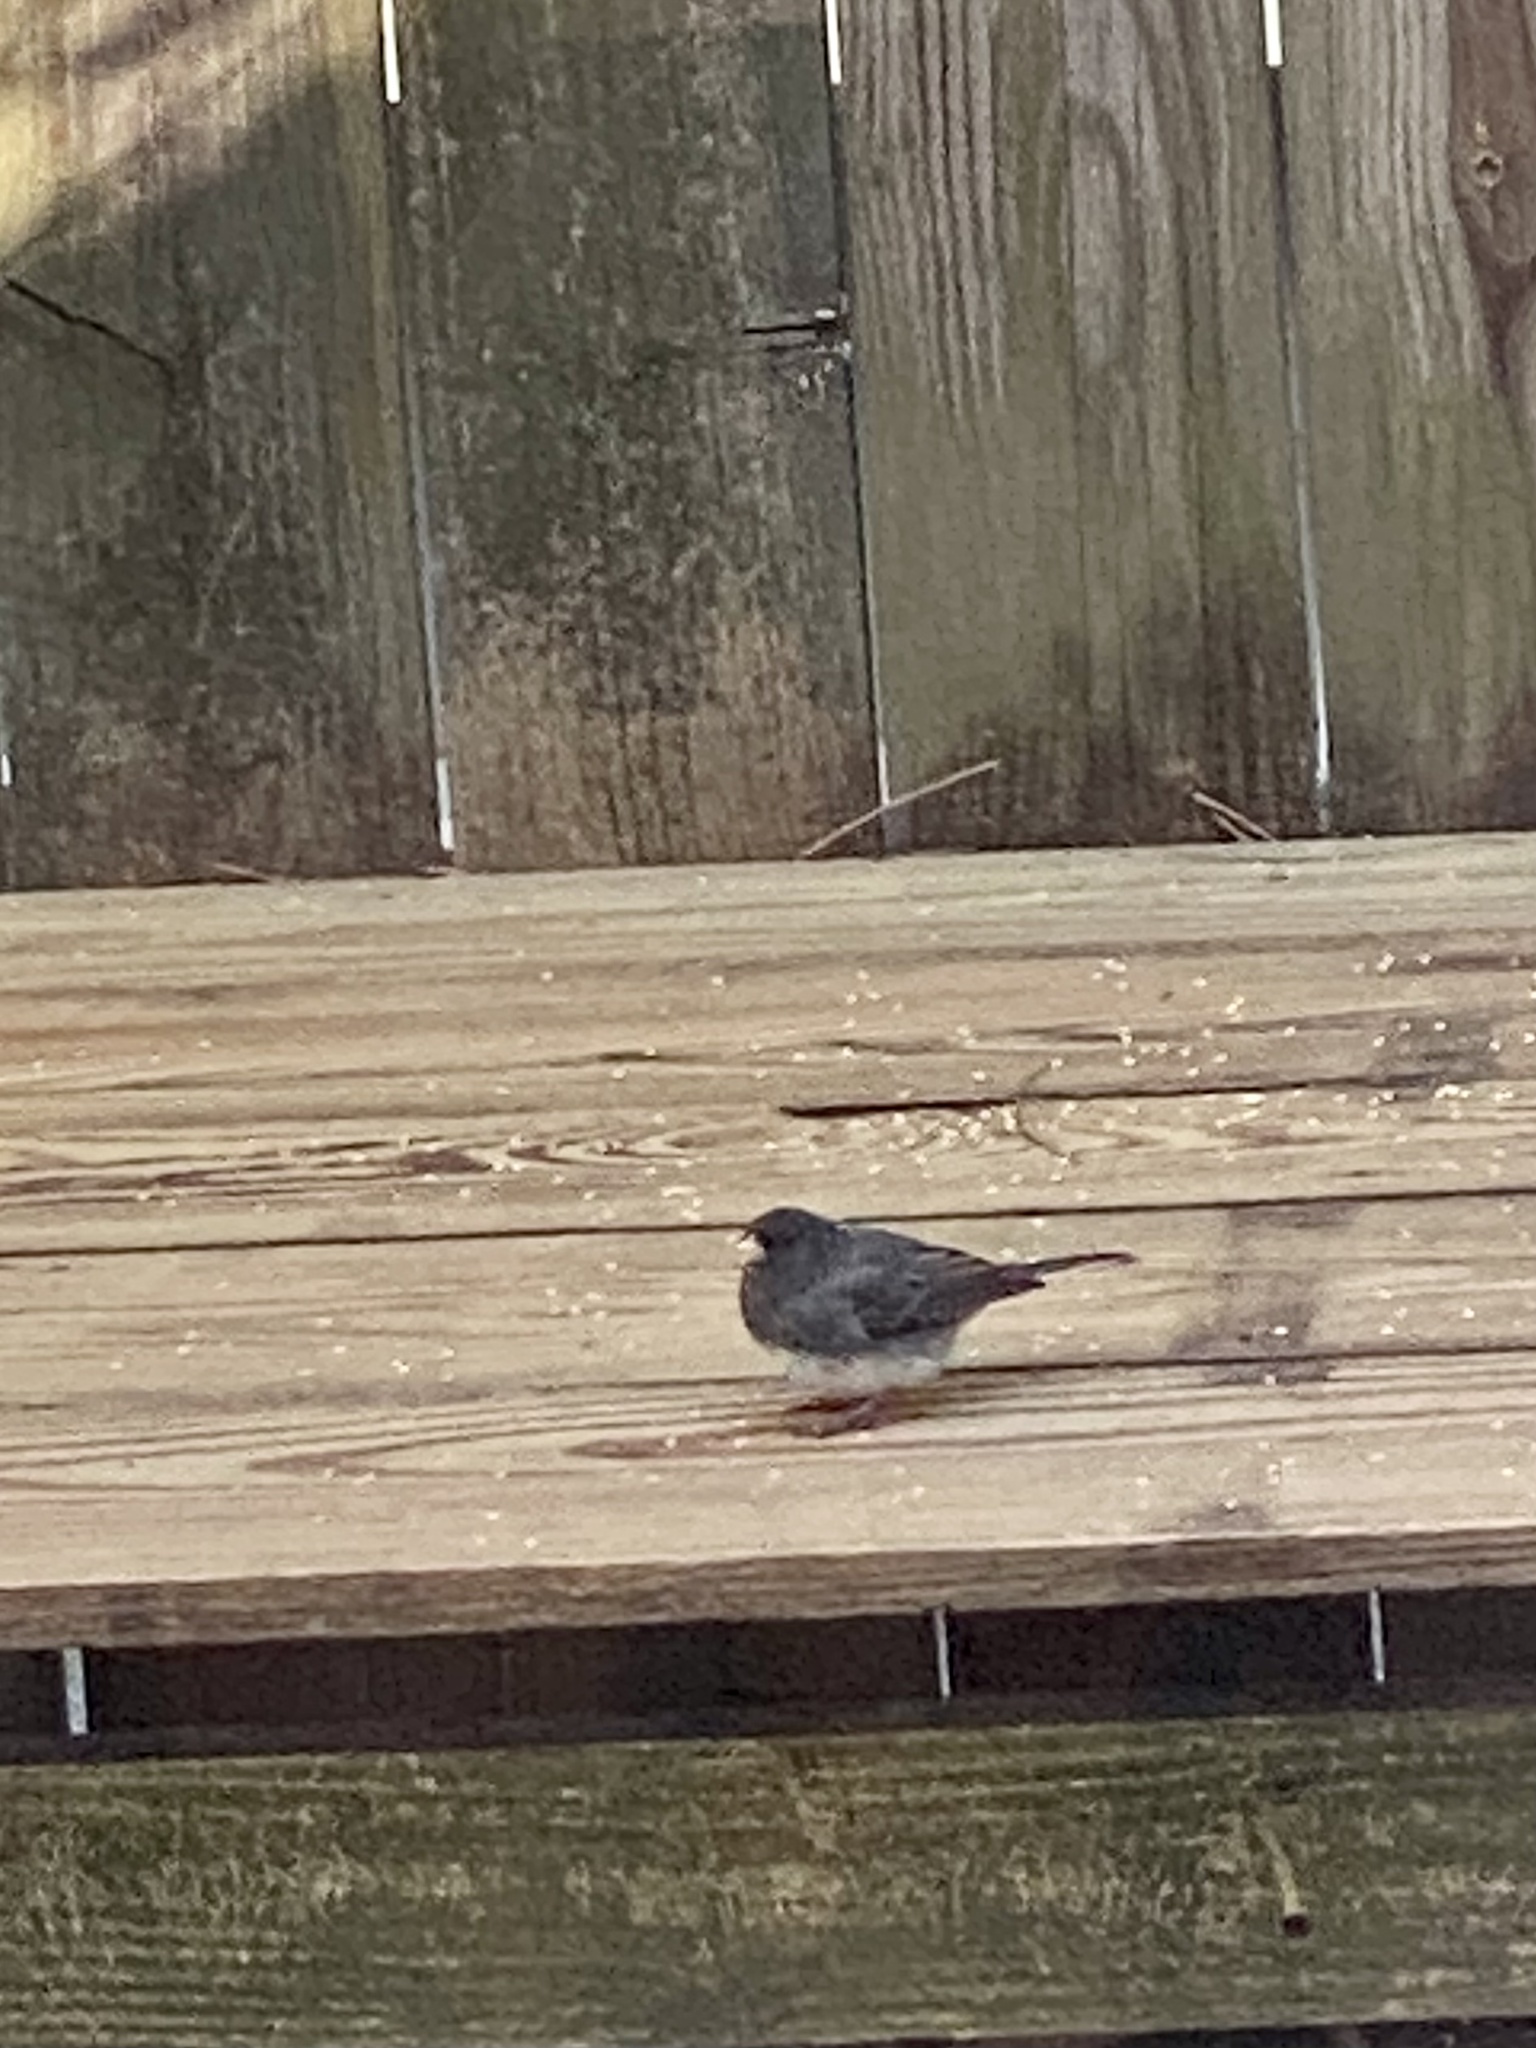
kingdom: Animalia
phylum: Chordata
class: Aves
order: Passeriformes
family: Passerellidae
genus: Junco
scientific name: Junco hyemalis
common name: Dark-eyed junco
